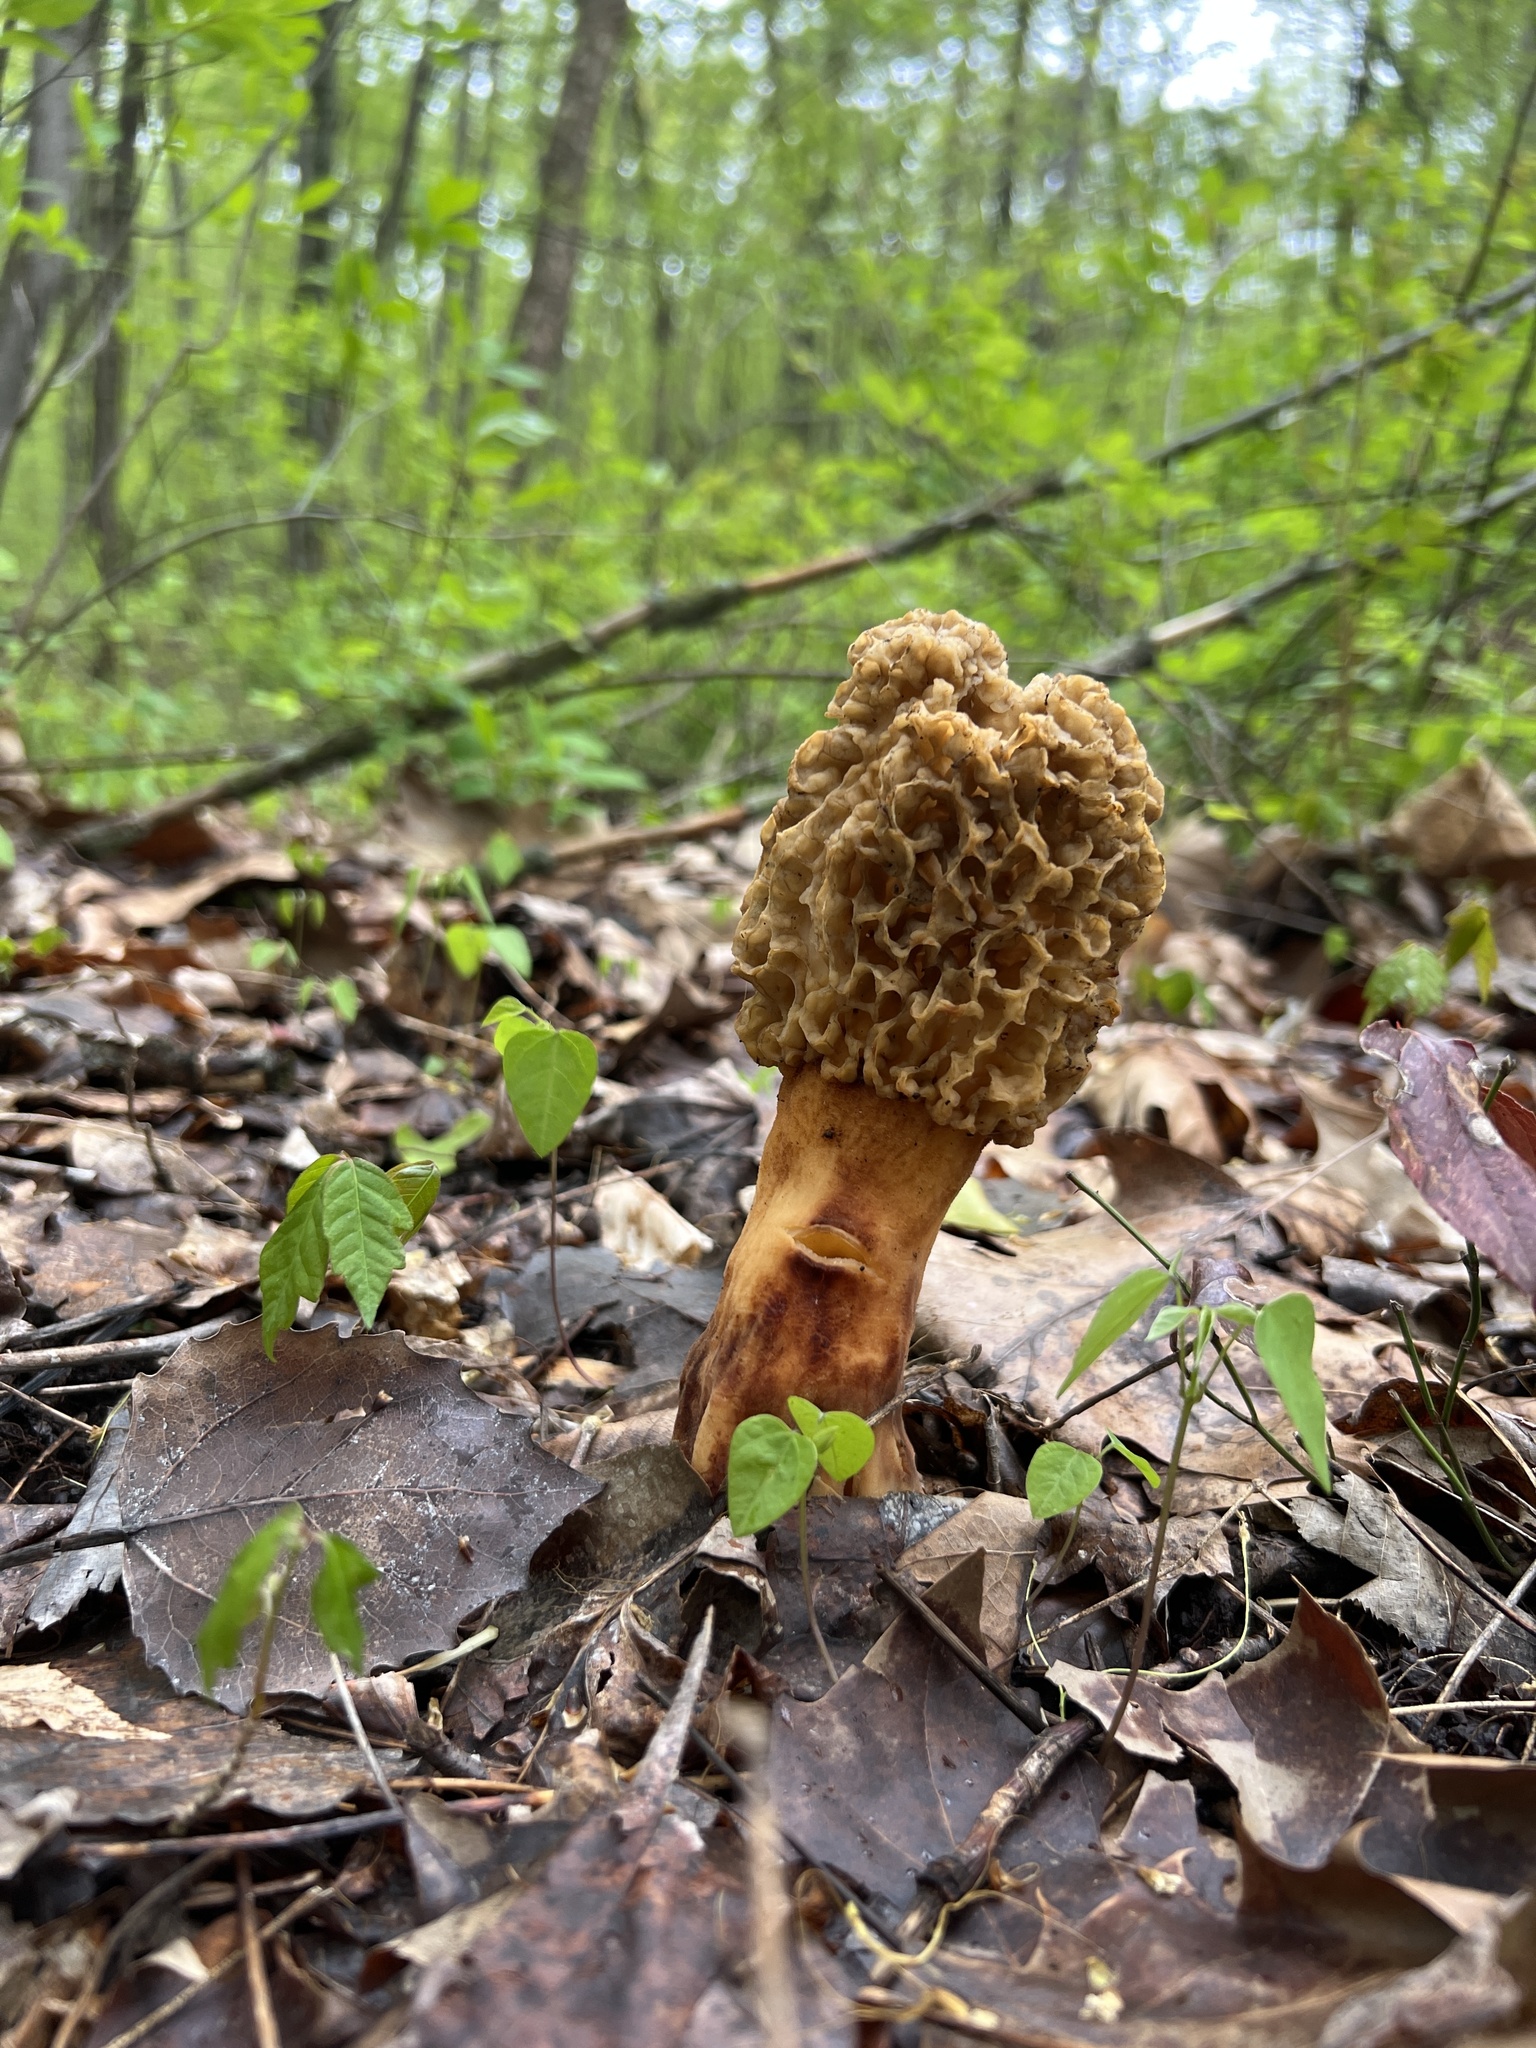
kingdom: Fungi
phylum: Ascomycota
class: Pezizomycetes
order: Pezizales
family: Morchellaceae
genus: Morchella
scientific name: Morchella americana
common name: White morel
